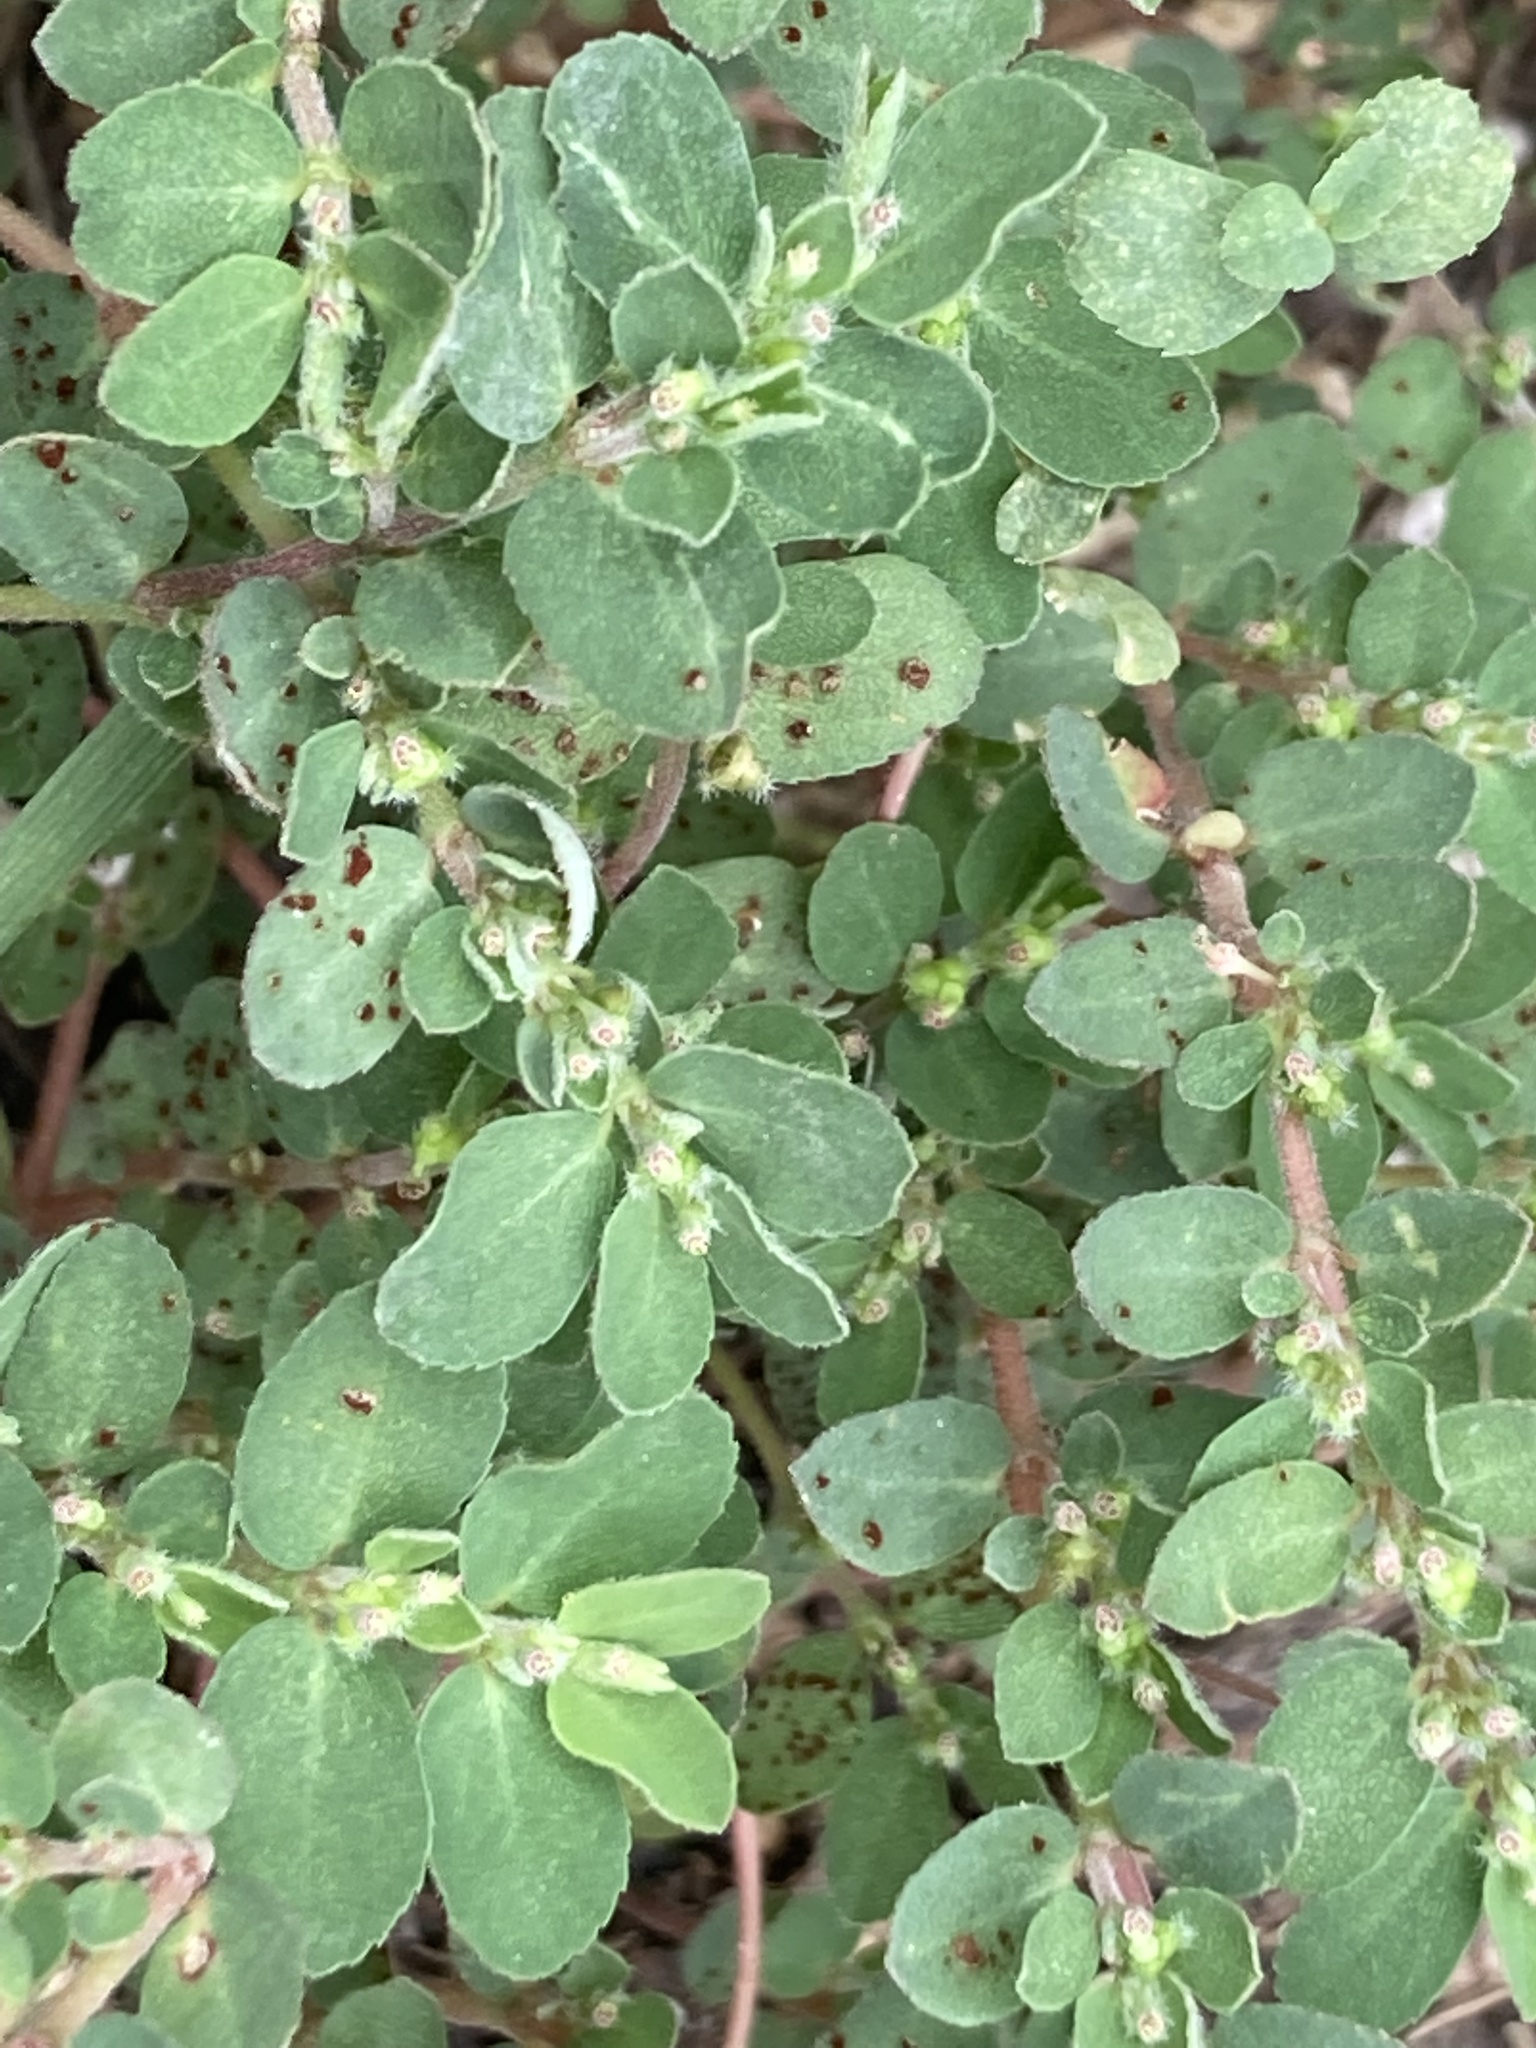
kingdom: Plantae
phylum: Tracheophyta
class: Magnoliopsida
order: Malpighiales
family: Euphorbiaceae
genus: Euphorbia
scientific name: Euphorbia prostrata
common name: Prostrate sandmat
